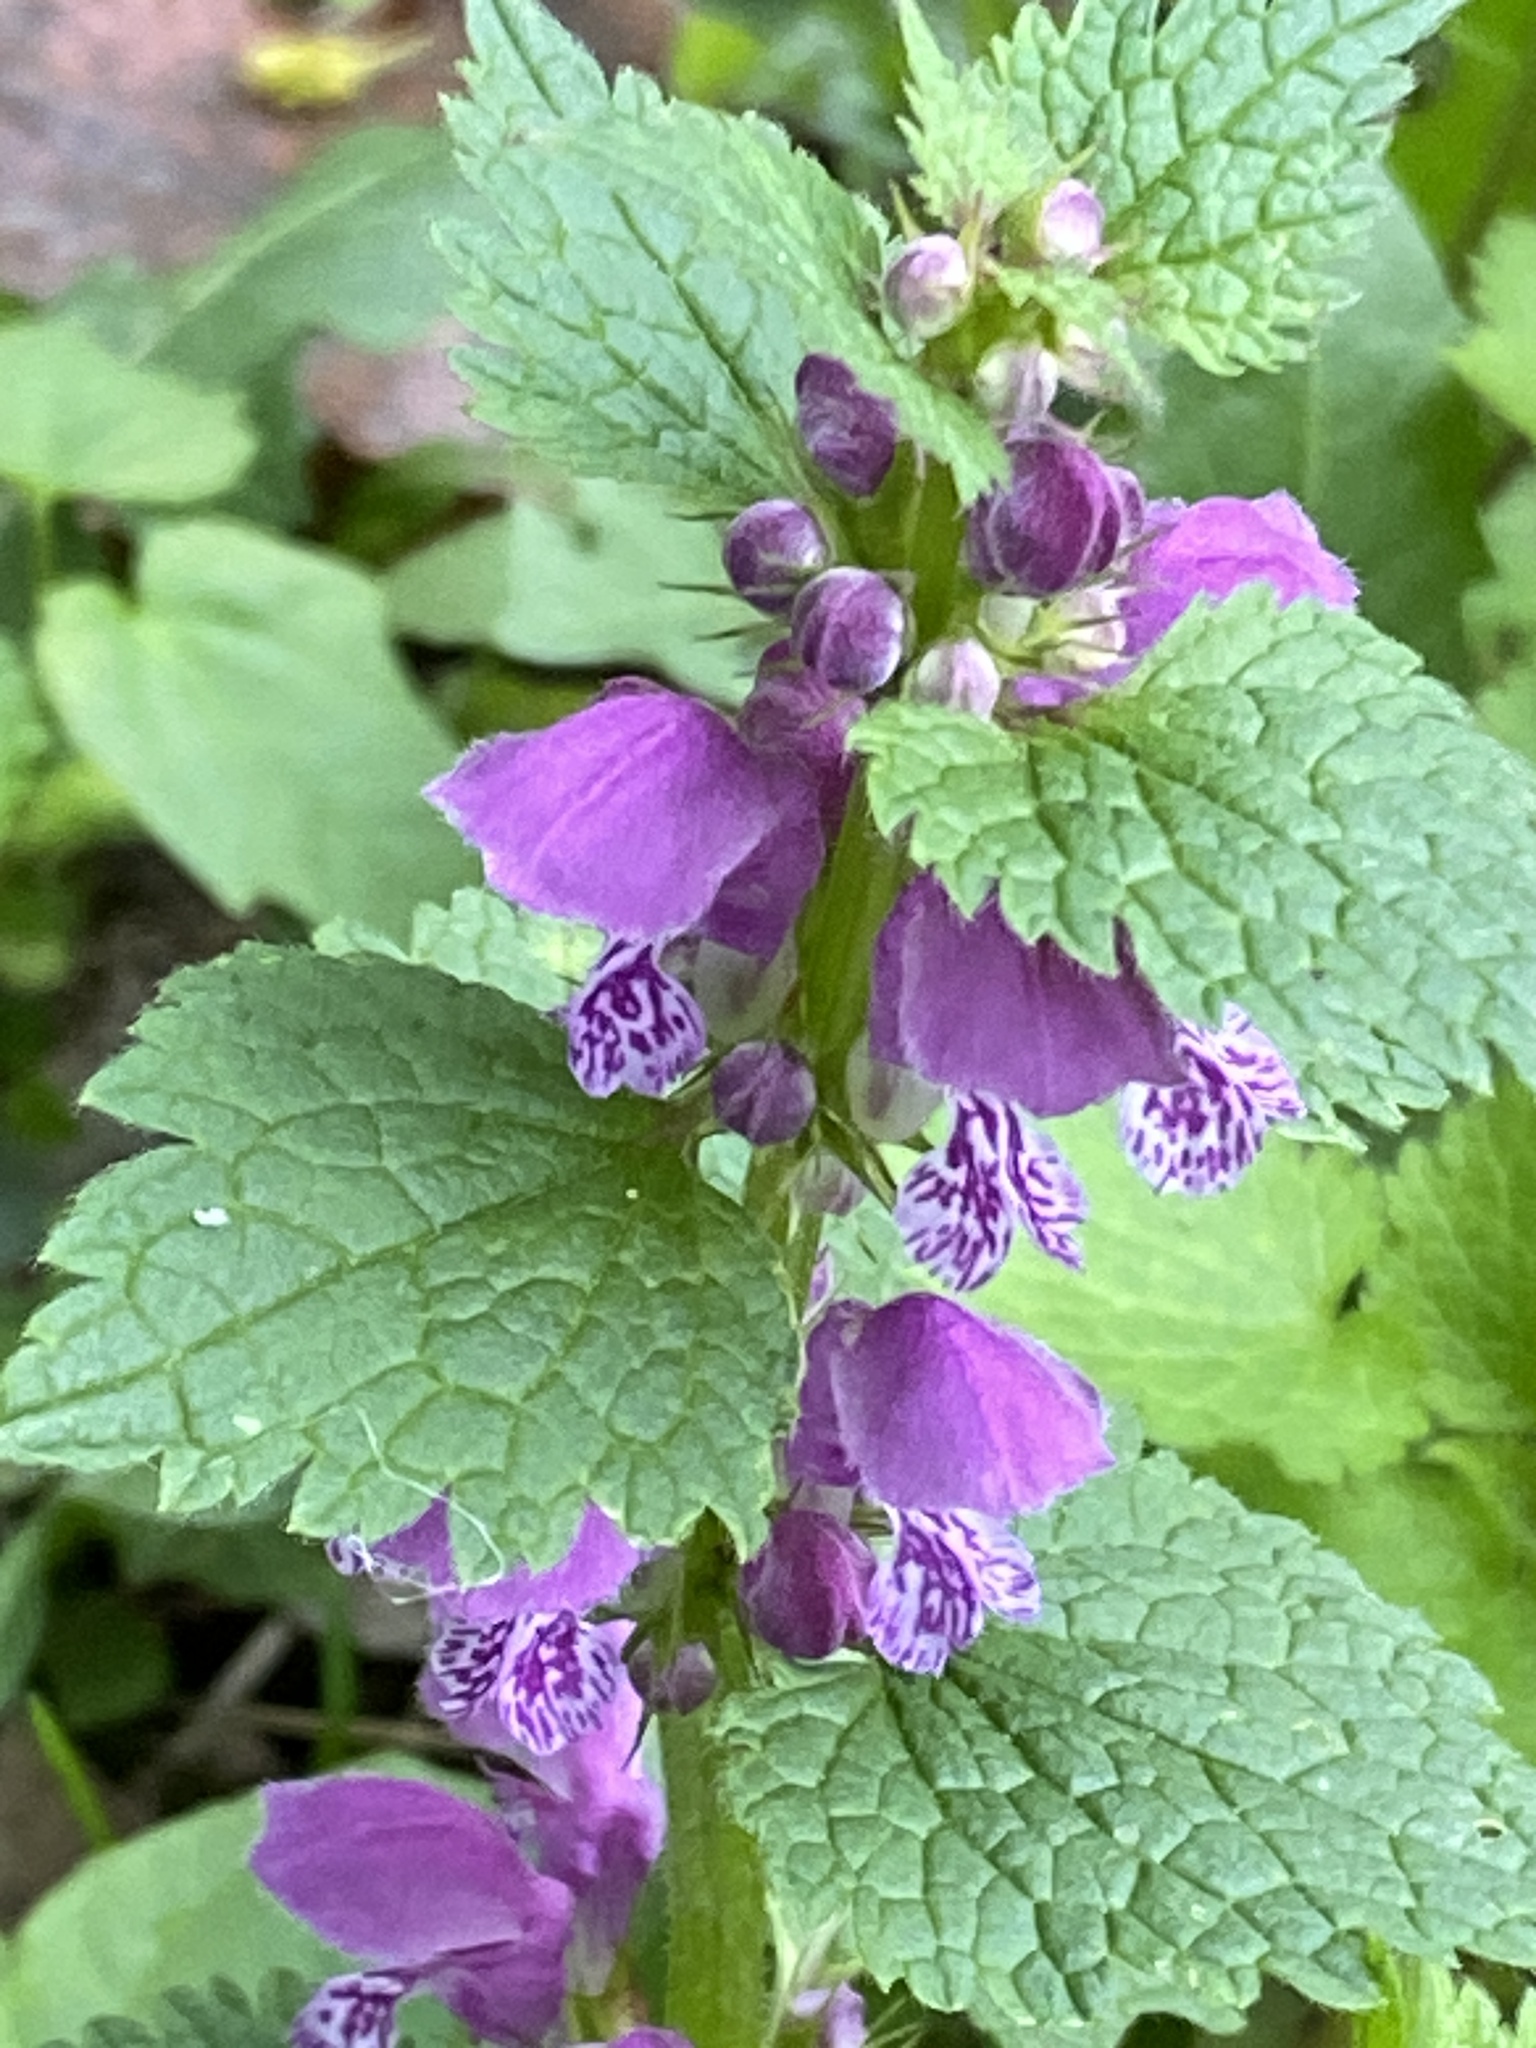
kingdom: Plantae
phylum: Tracheophyta
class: Magnoliopsida
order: Lamiales
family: Lamiaceae
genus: Lamium
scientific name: Lamium maculatum
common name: Spotted dead-nettle
